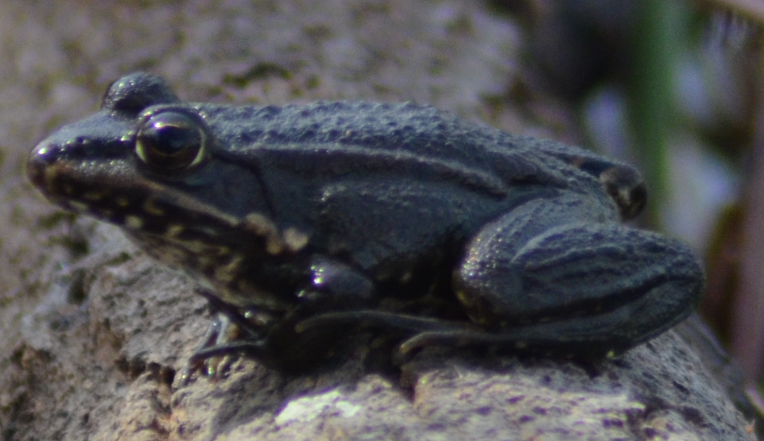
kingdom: Animalia
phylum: Chordata
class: Amphibia
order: Anura
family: Ranidae
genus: Pelophylax
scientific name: Pelophylax perezi
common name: Perez's frog
